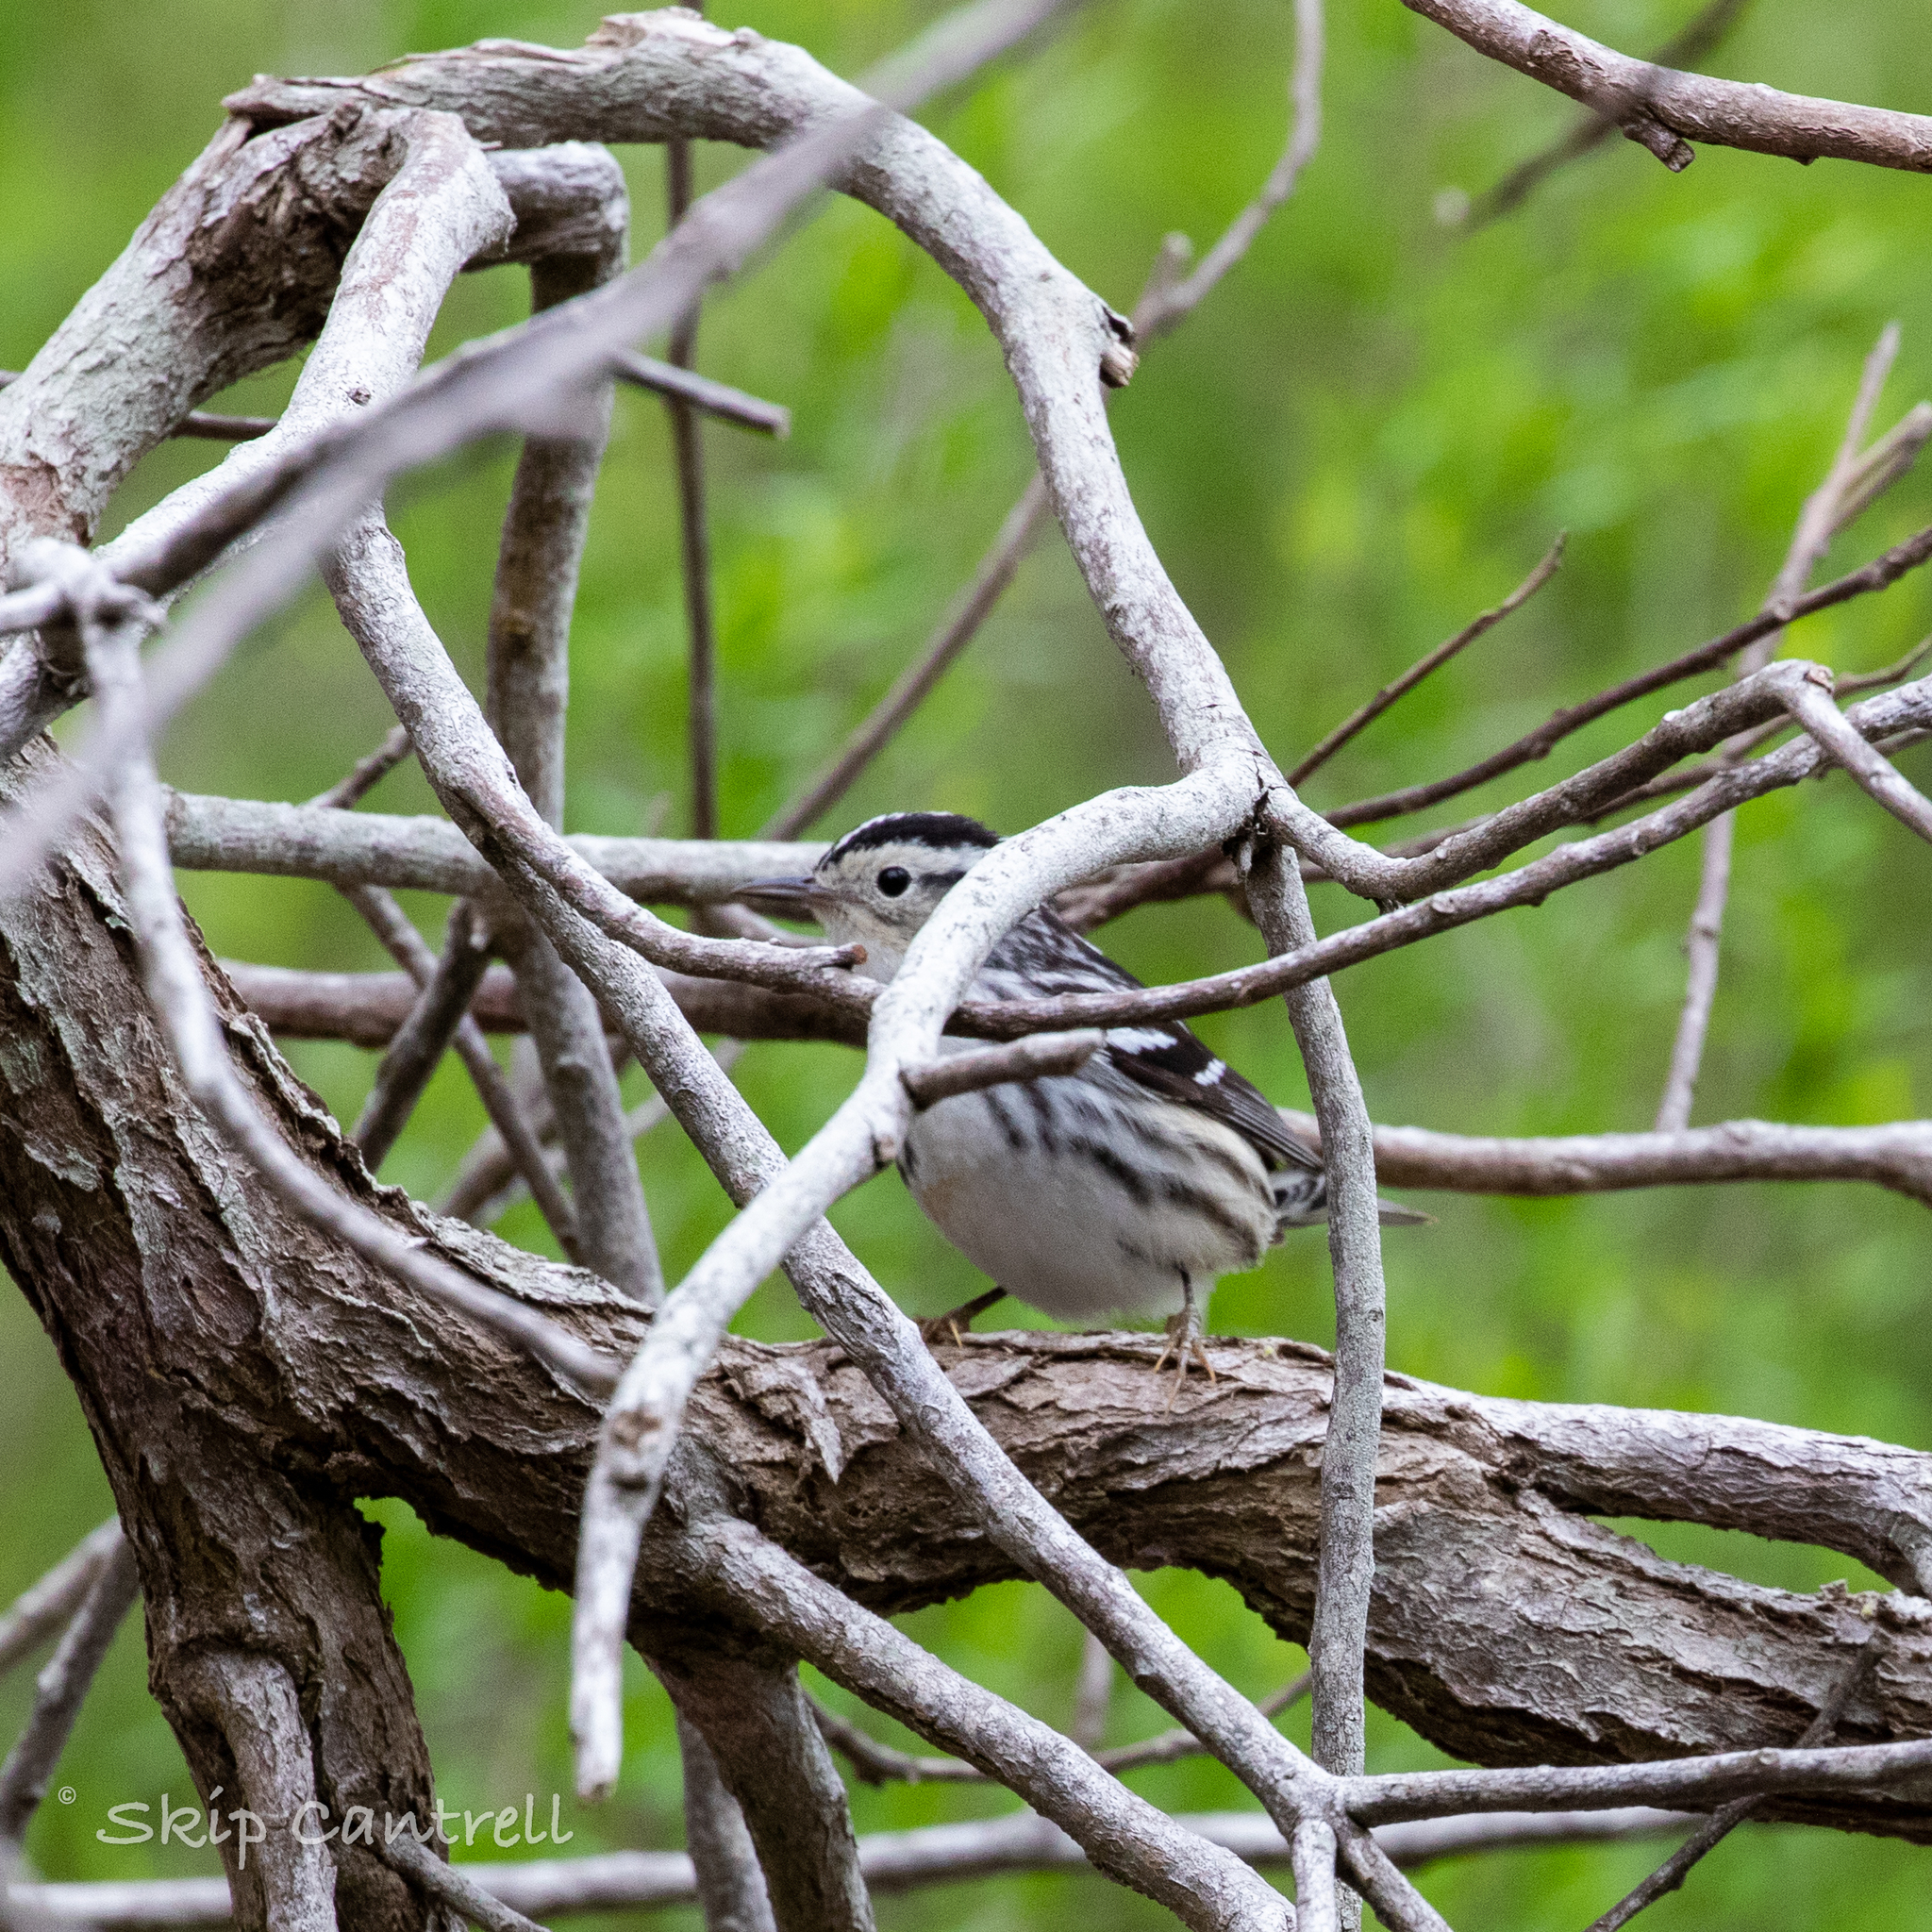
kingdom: Animalia
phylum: Chordata
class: Aves
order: Passeriformes
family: Parulidae
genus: Mniotilta
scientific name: Mniotilta varia
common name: Black-and-white warbler
